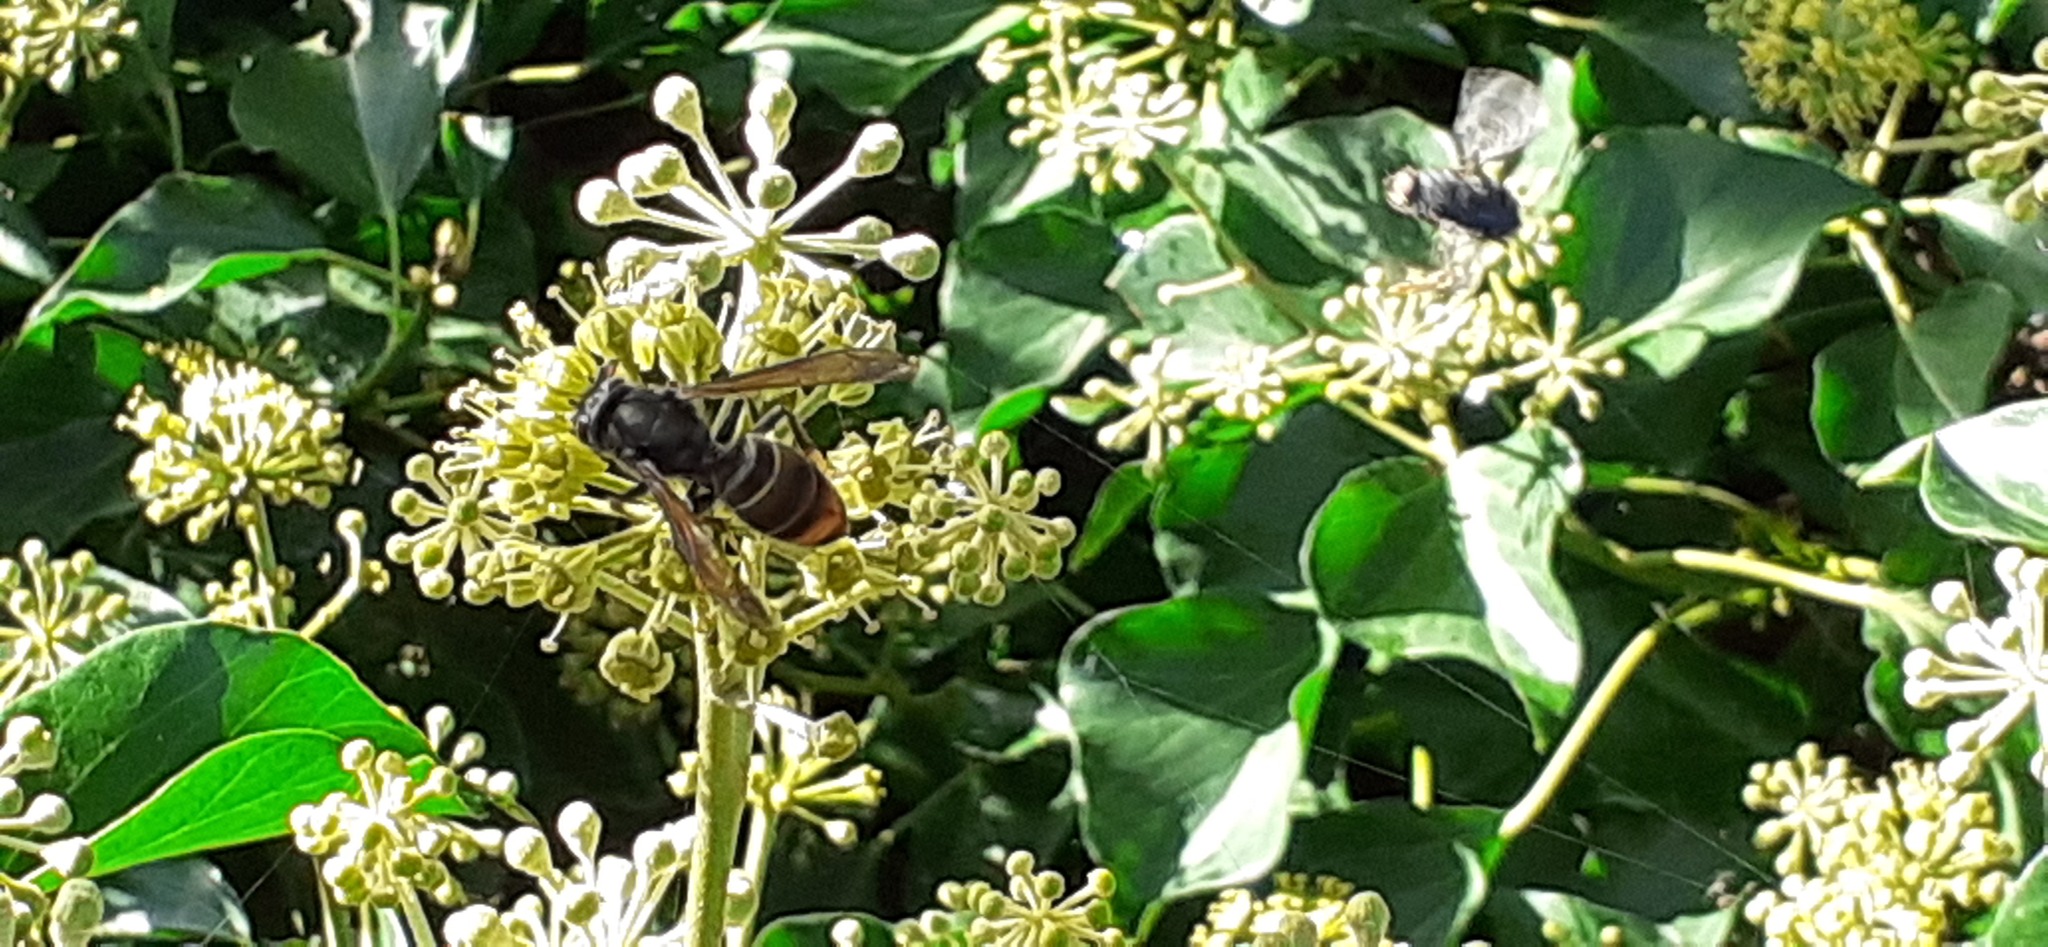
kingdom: Animalia
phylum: Arthropoda
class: Insecta
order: Hymenoptera
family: Vespidae
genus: Vespa
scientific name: Vespa velutina
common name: Asian hornet
